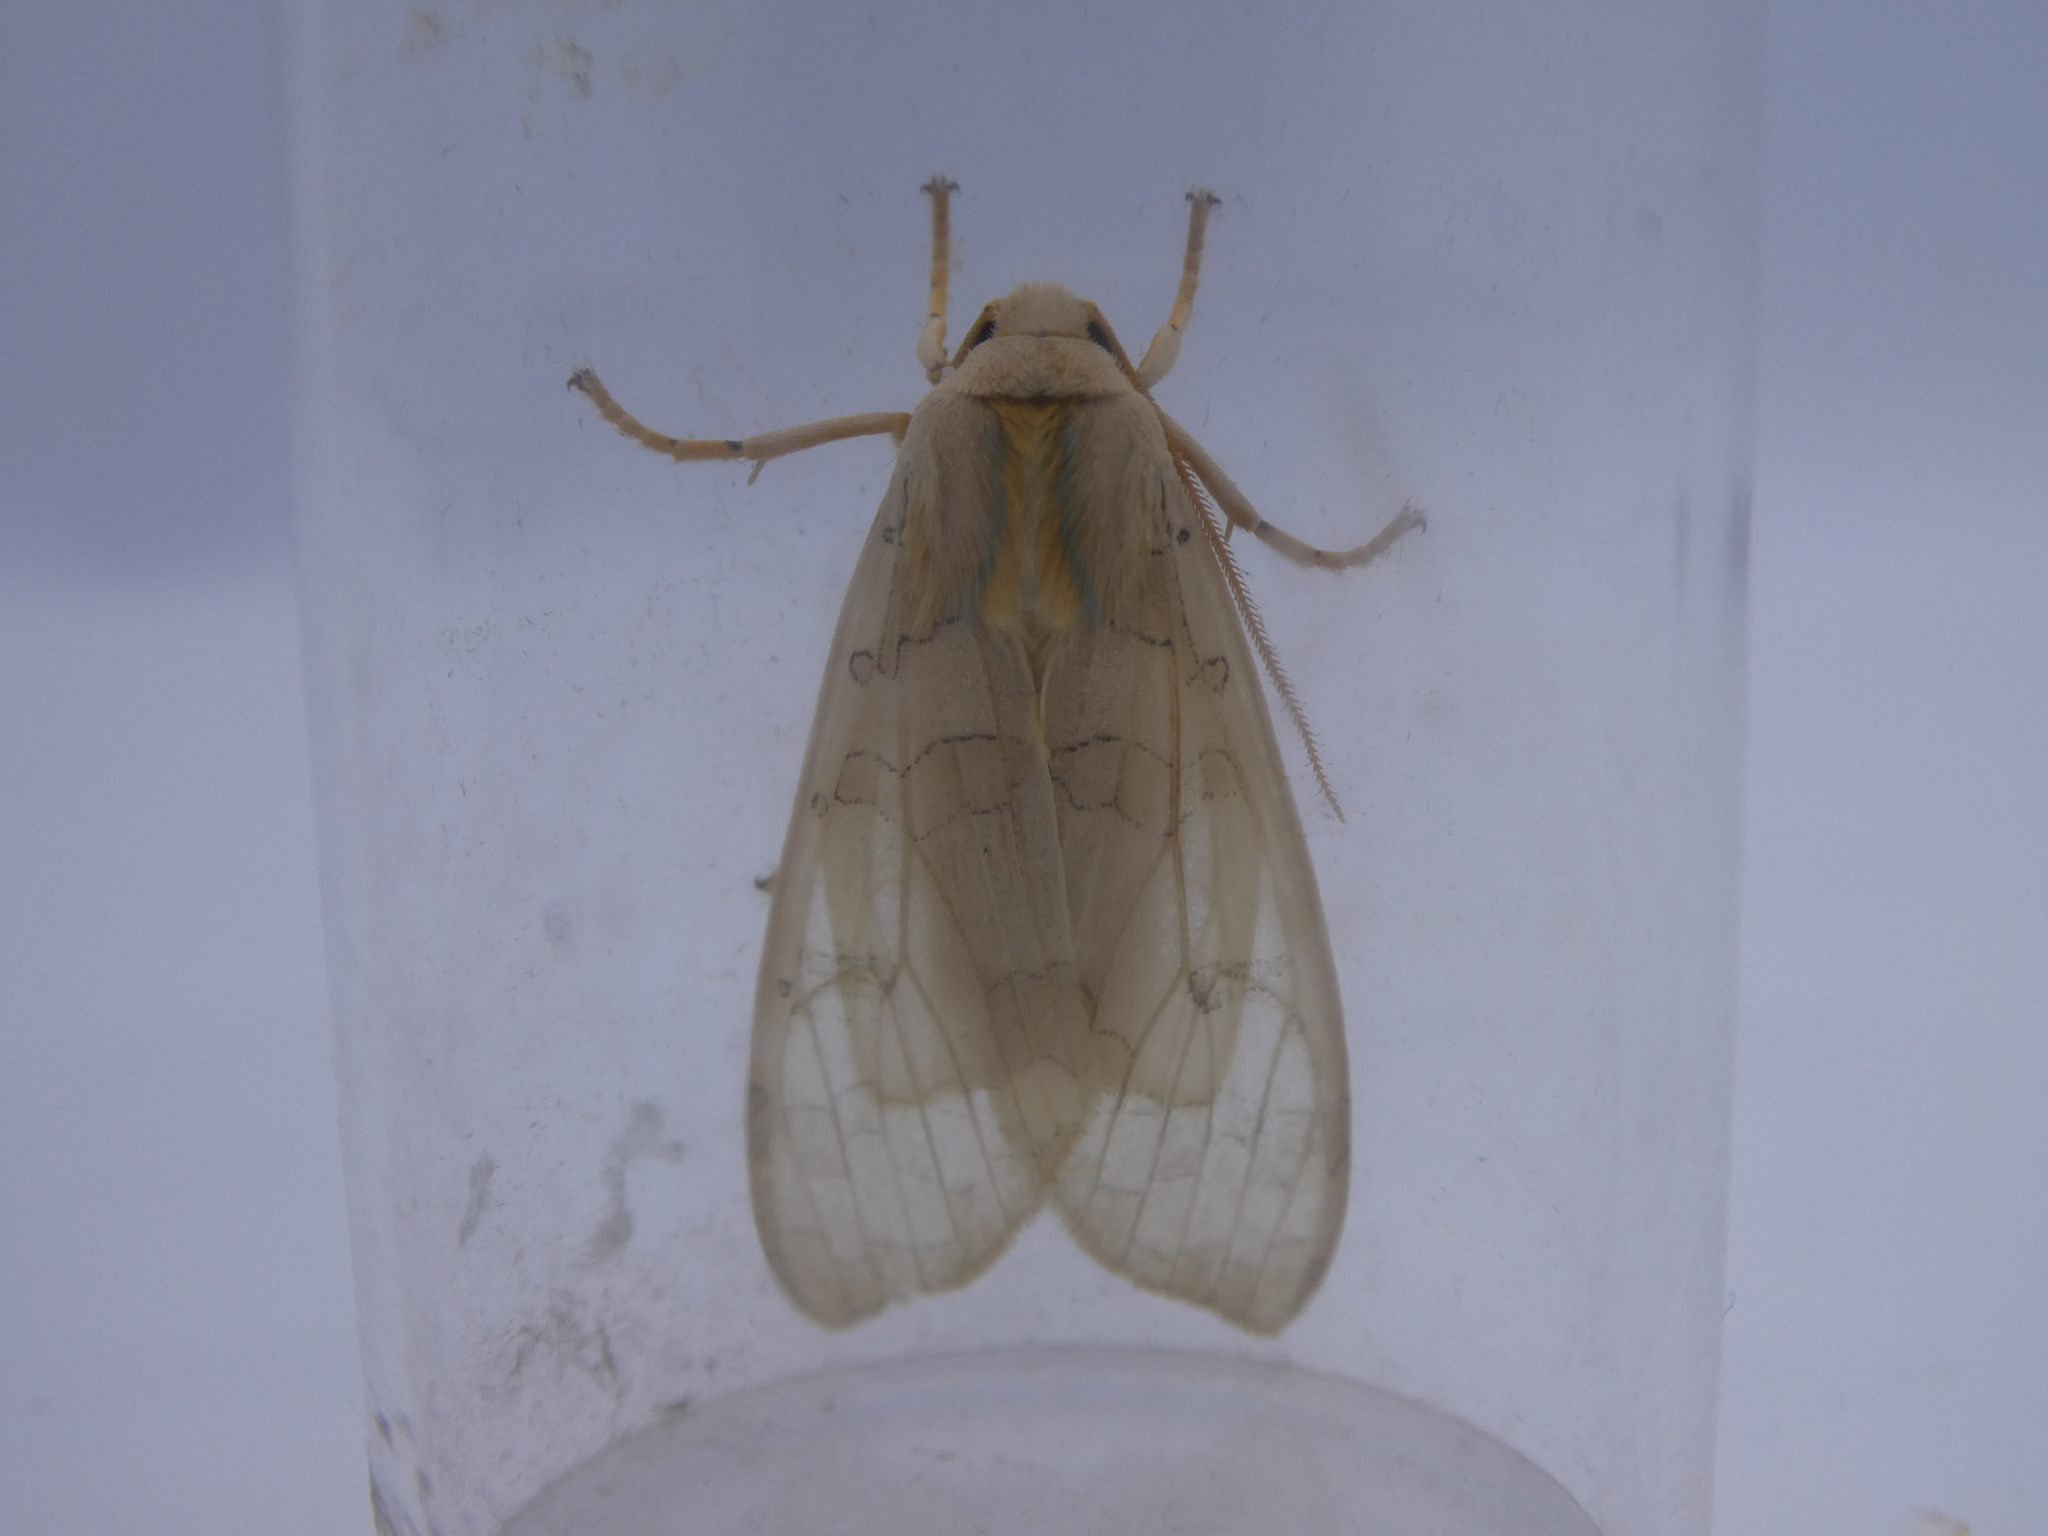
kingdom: Animalia
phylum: Arthropoda
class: Insecta
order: Lepidoptera
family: Erebidae
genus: Halysidota
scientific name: Halysidota tessellaris
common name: Banded tussock moth
